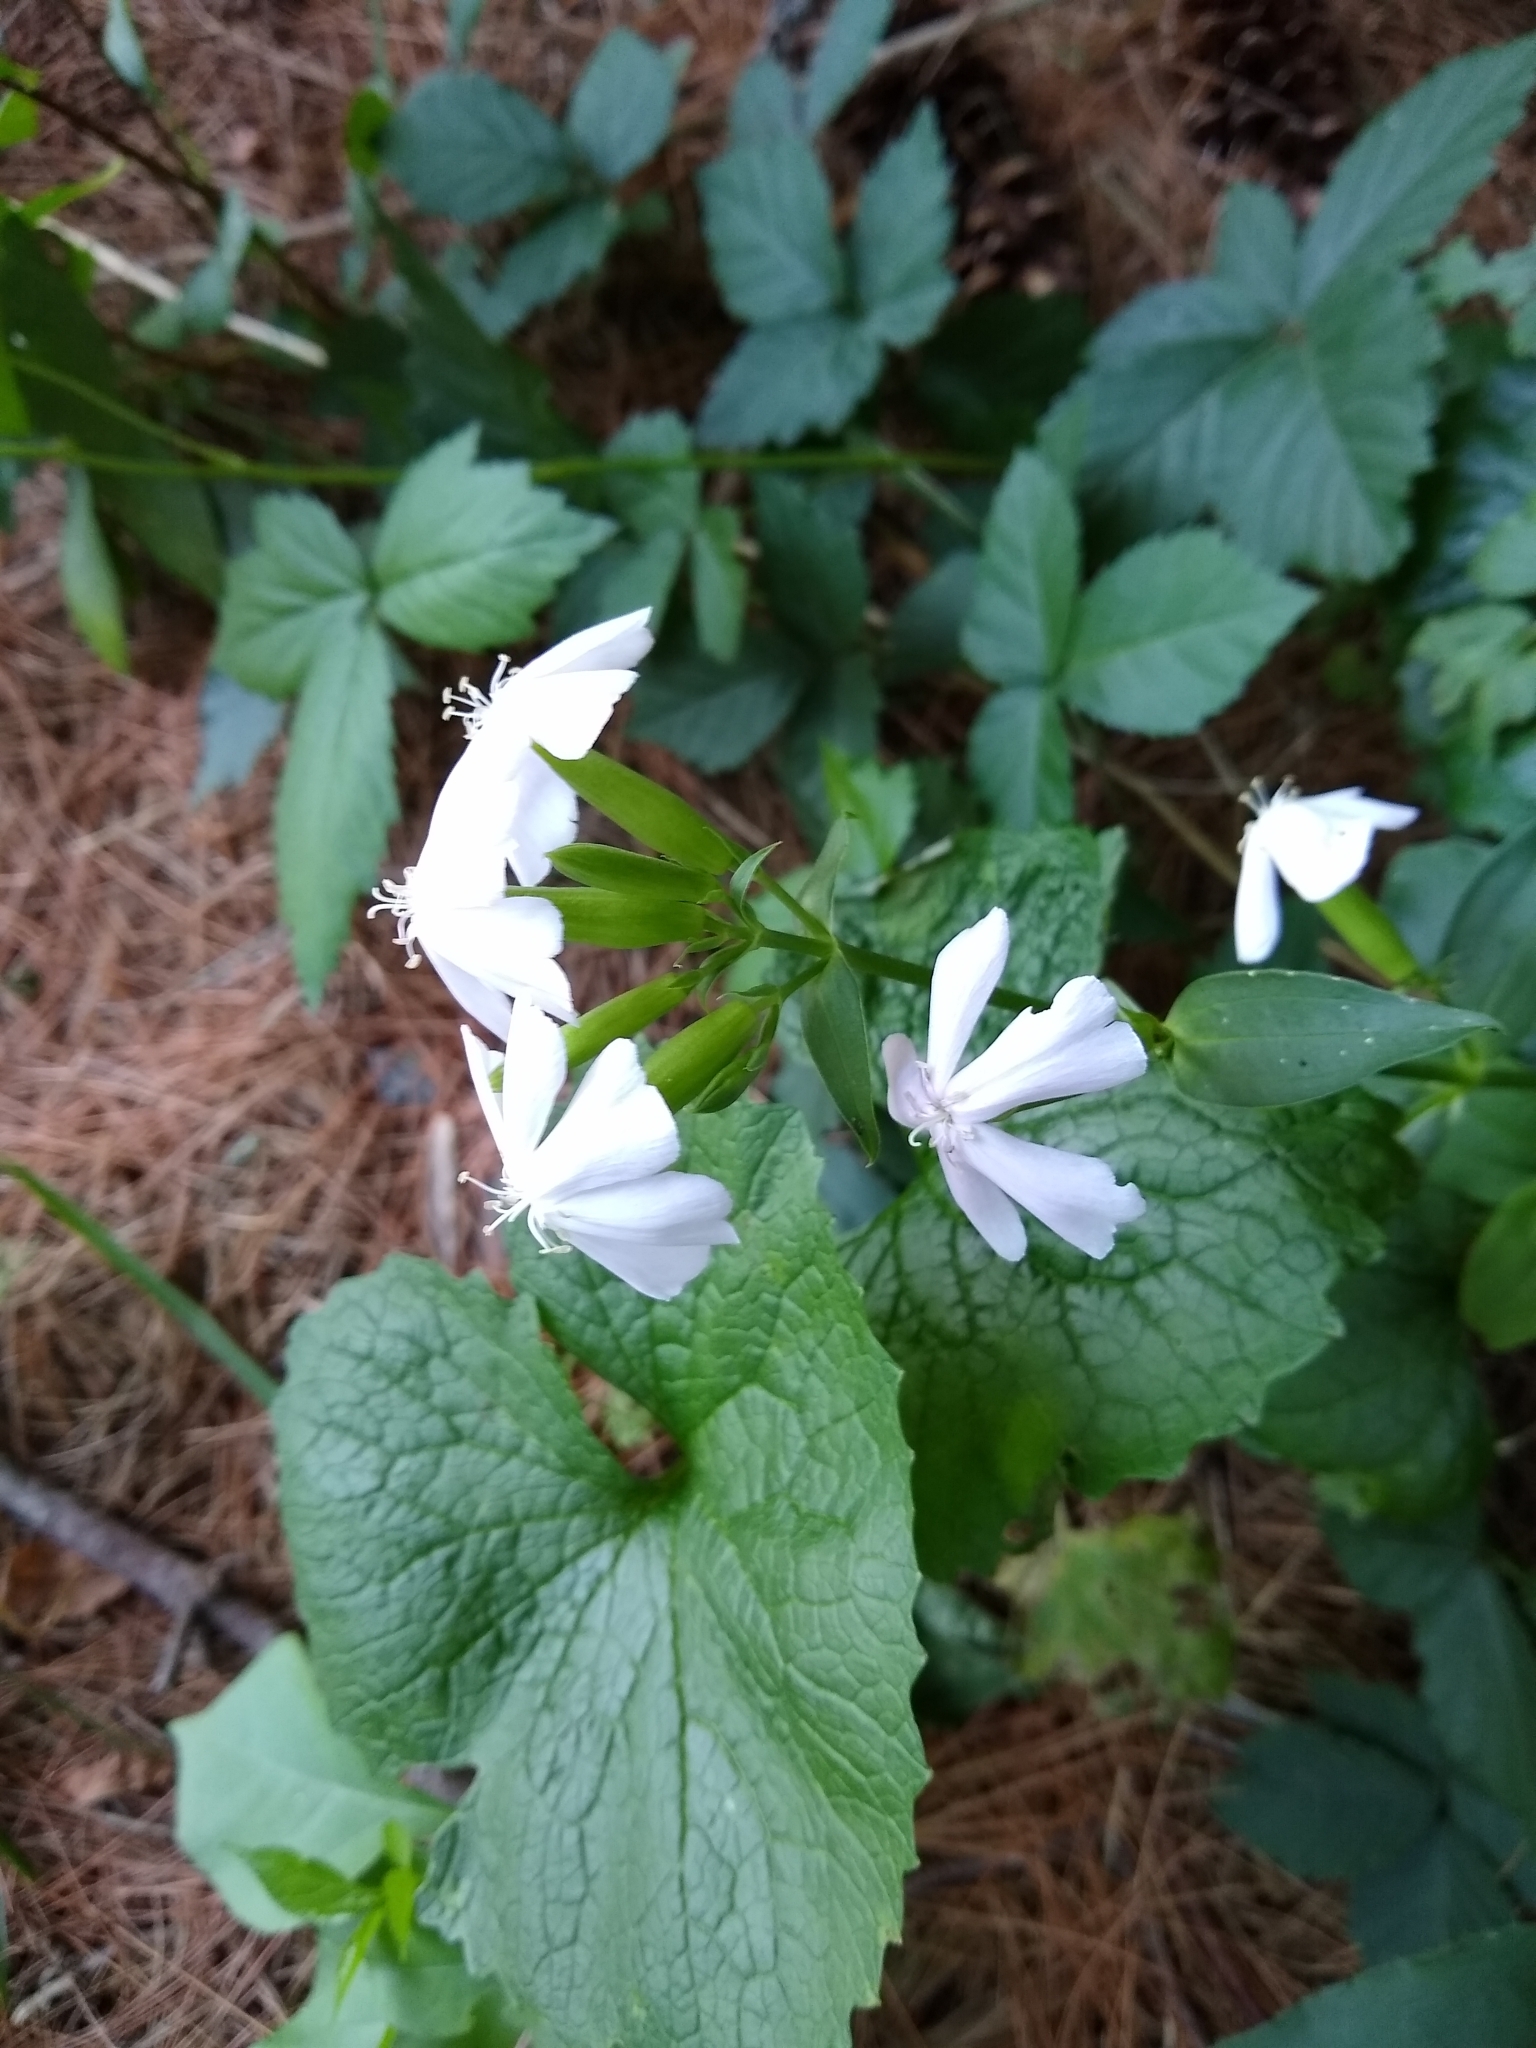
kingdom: Plantae
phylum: Tracheophyta
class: Magnoliopsida
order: Caryophyllales
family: Caryophyllaceae
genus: Saponaria
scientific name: Saponaria officinalis
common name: Soapwort
